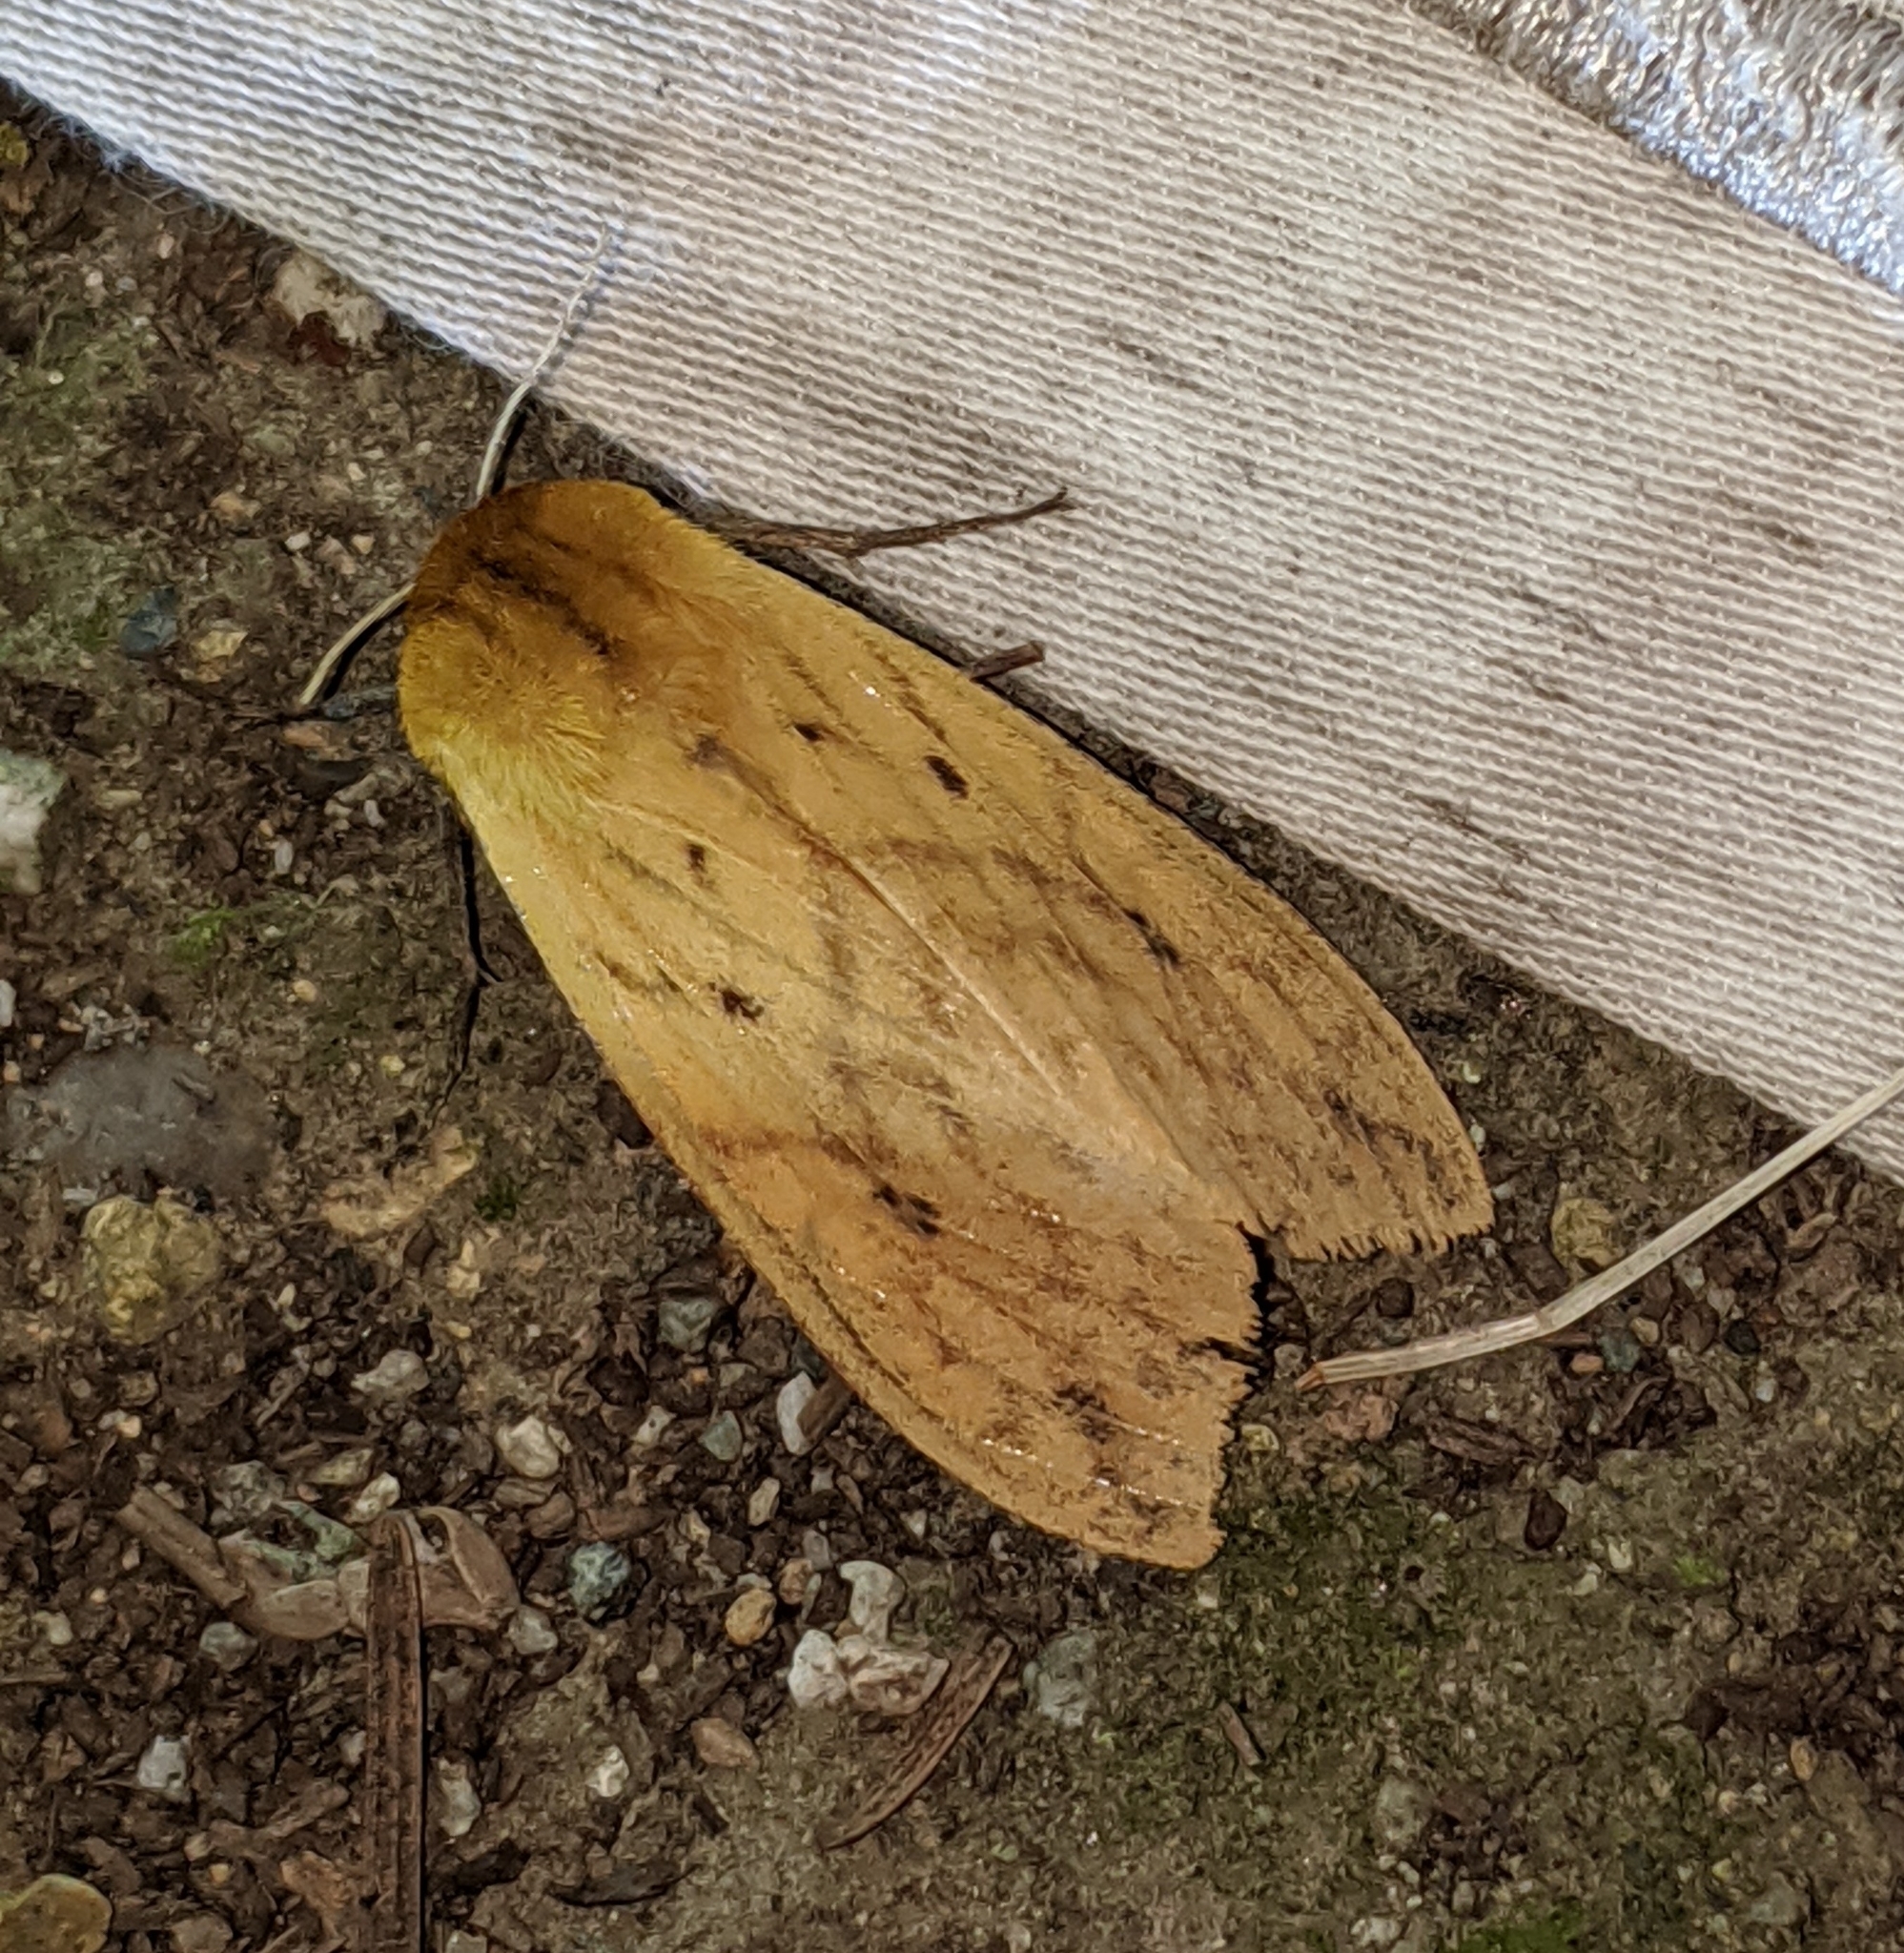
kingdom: Animalia
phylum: Arthropoda
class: Insecta
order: Lepidoptera
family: Erebidae
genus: Pyrrharctia
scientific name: Pyrrharctia isabella
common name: Isabella tiger moth
